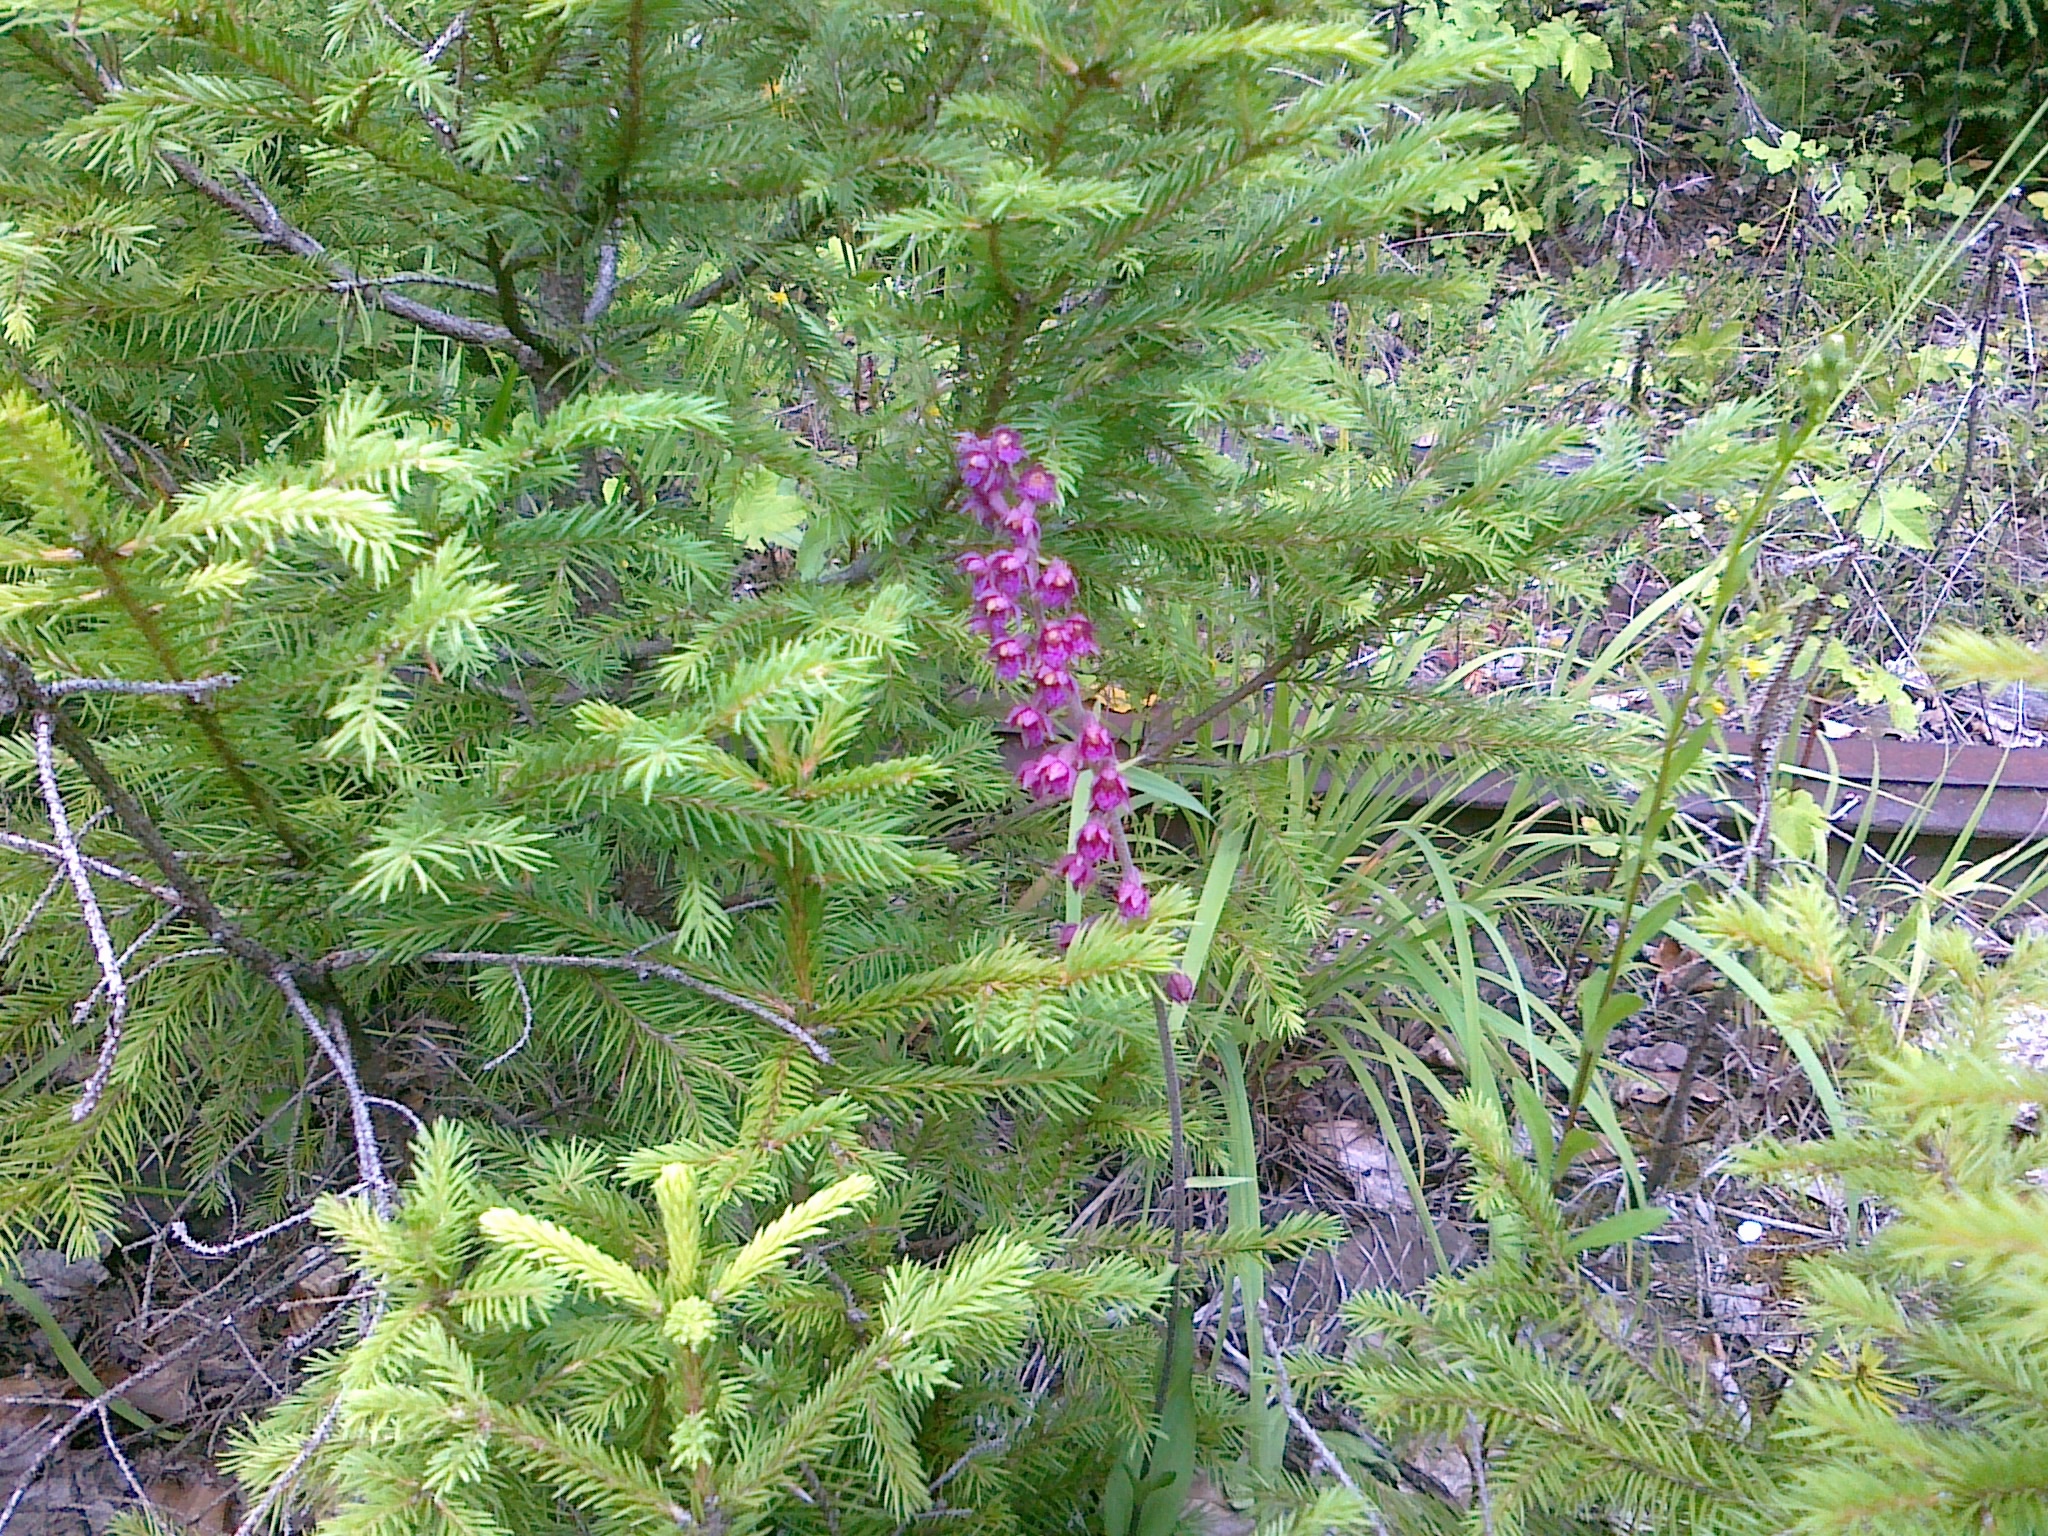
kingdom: Plantae
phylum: Tracheophyta
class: Liliopsida
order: Asparagales
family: Orchidaceae
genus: Epipactis
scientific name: Epipactis atrorubens
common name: Dark-red helleborine
